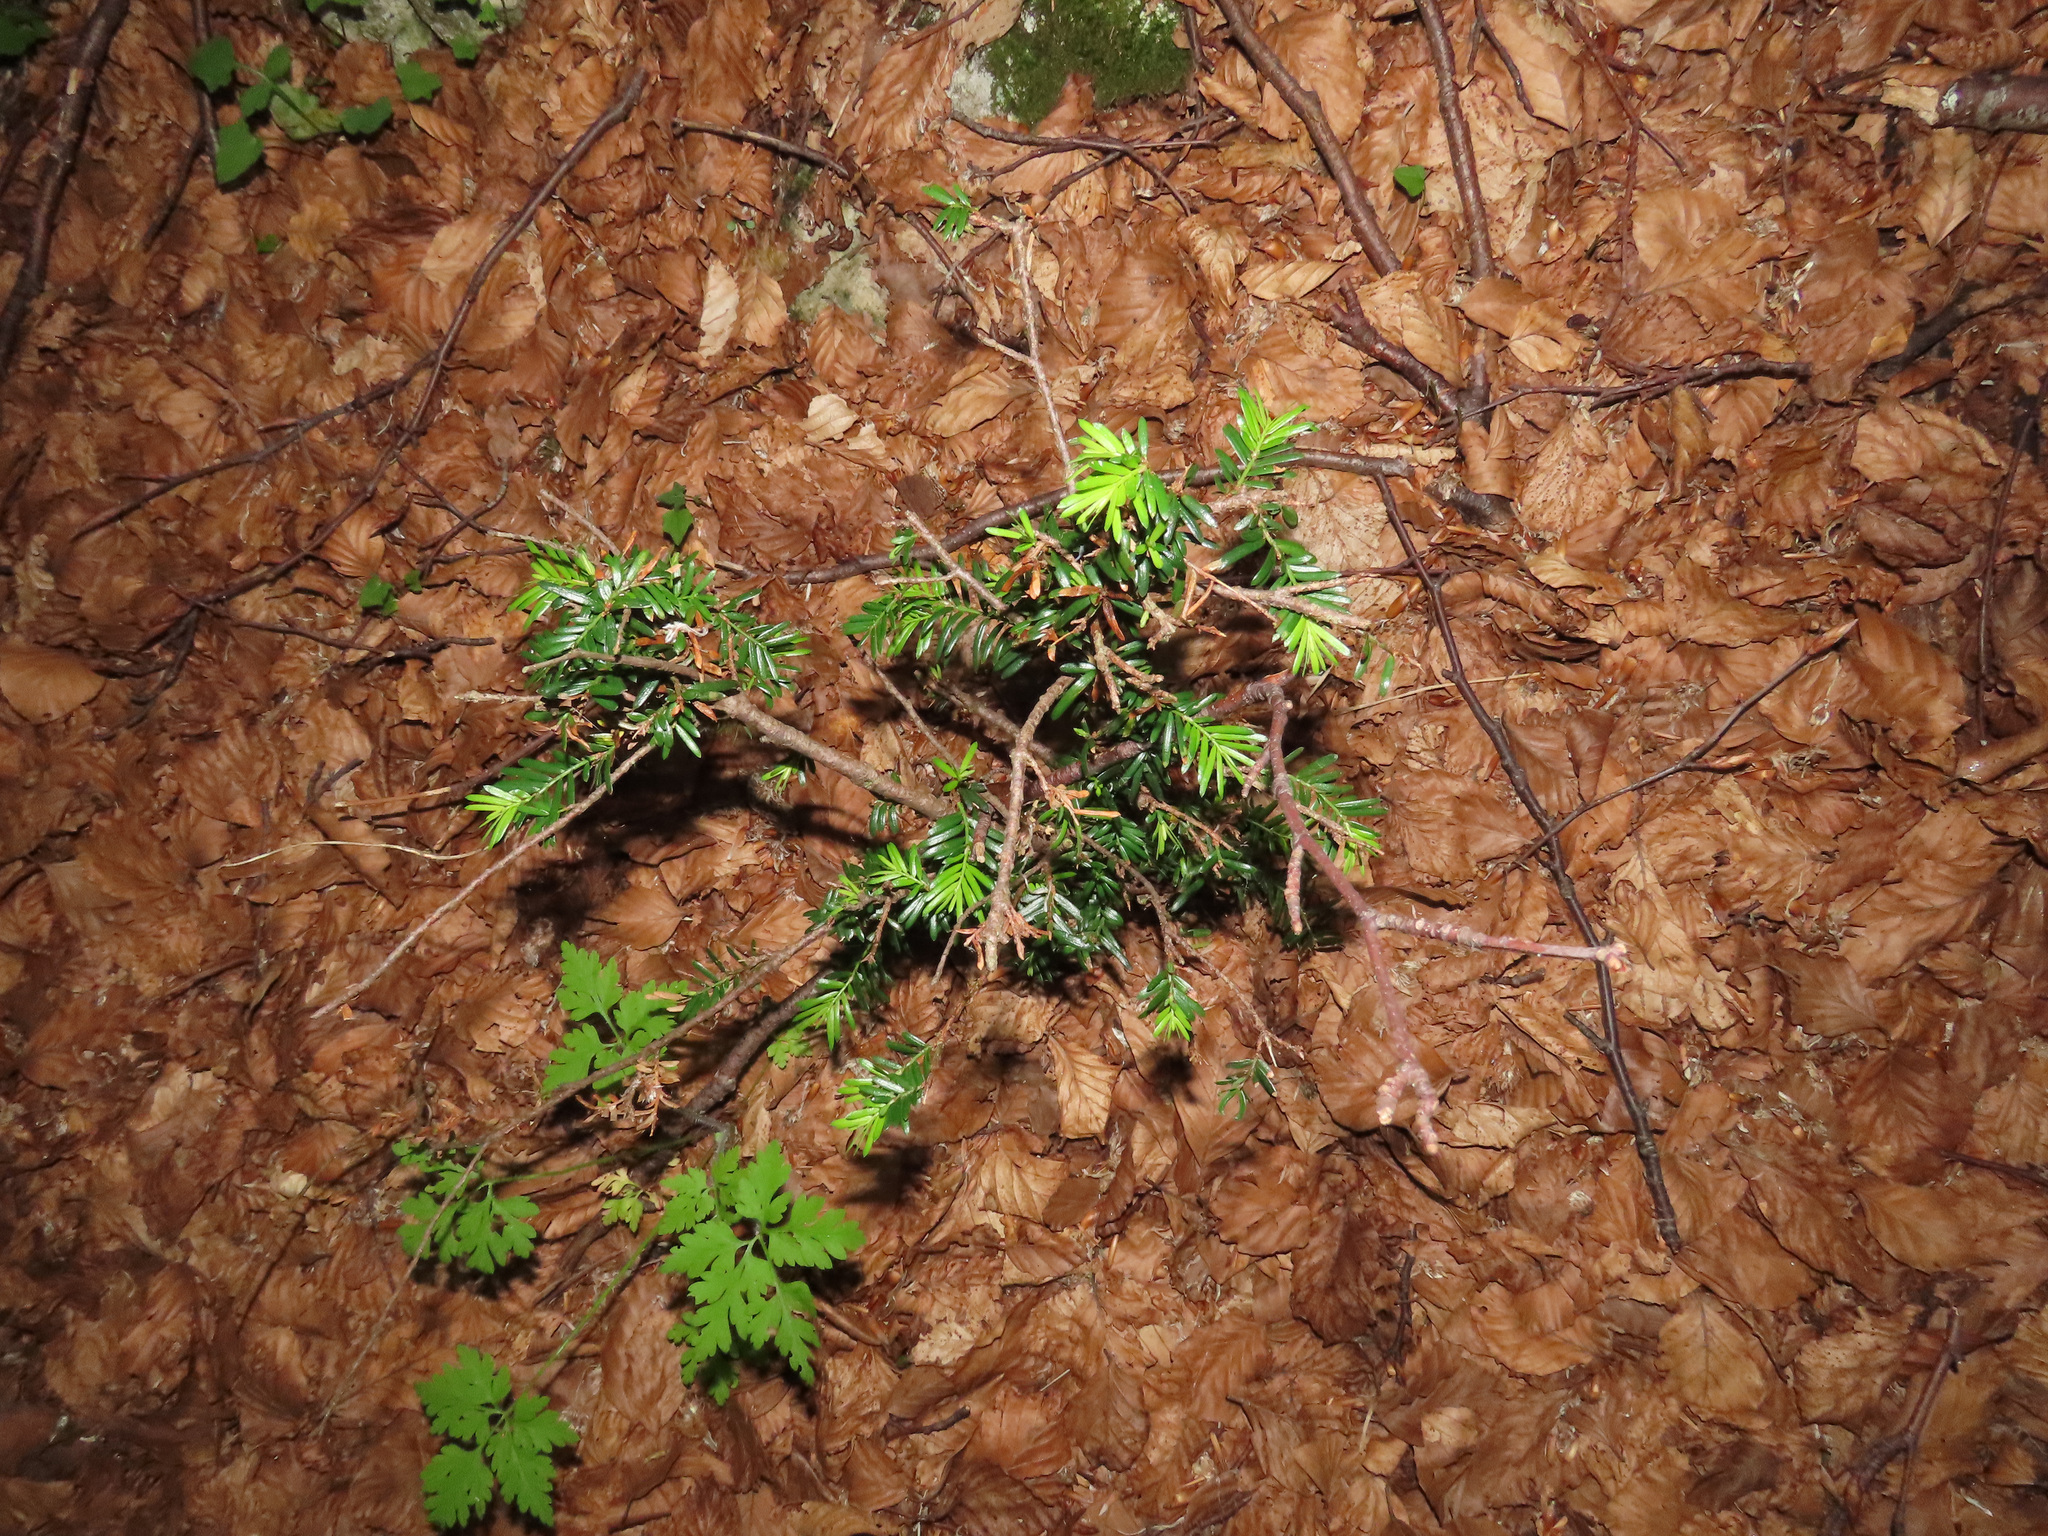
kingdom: Plantae
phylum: Tracheophyta
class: Pinopsida
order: Pinales
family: Taxaceae
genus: Taxus
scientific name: Taxus baccata
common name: Yew
